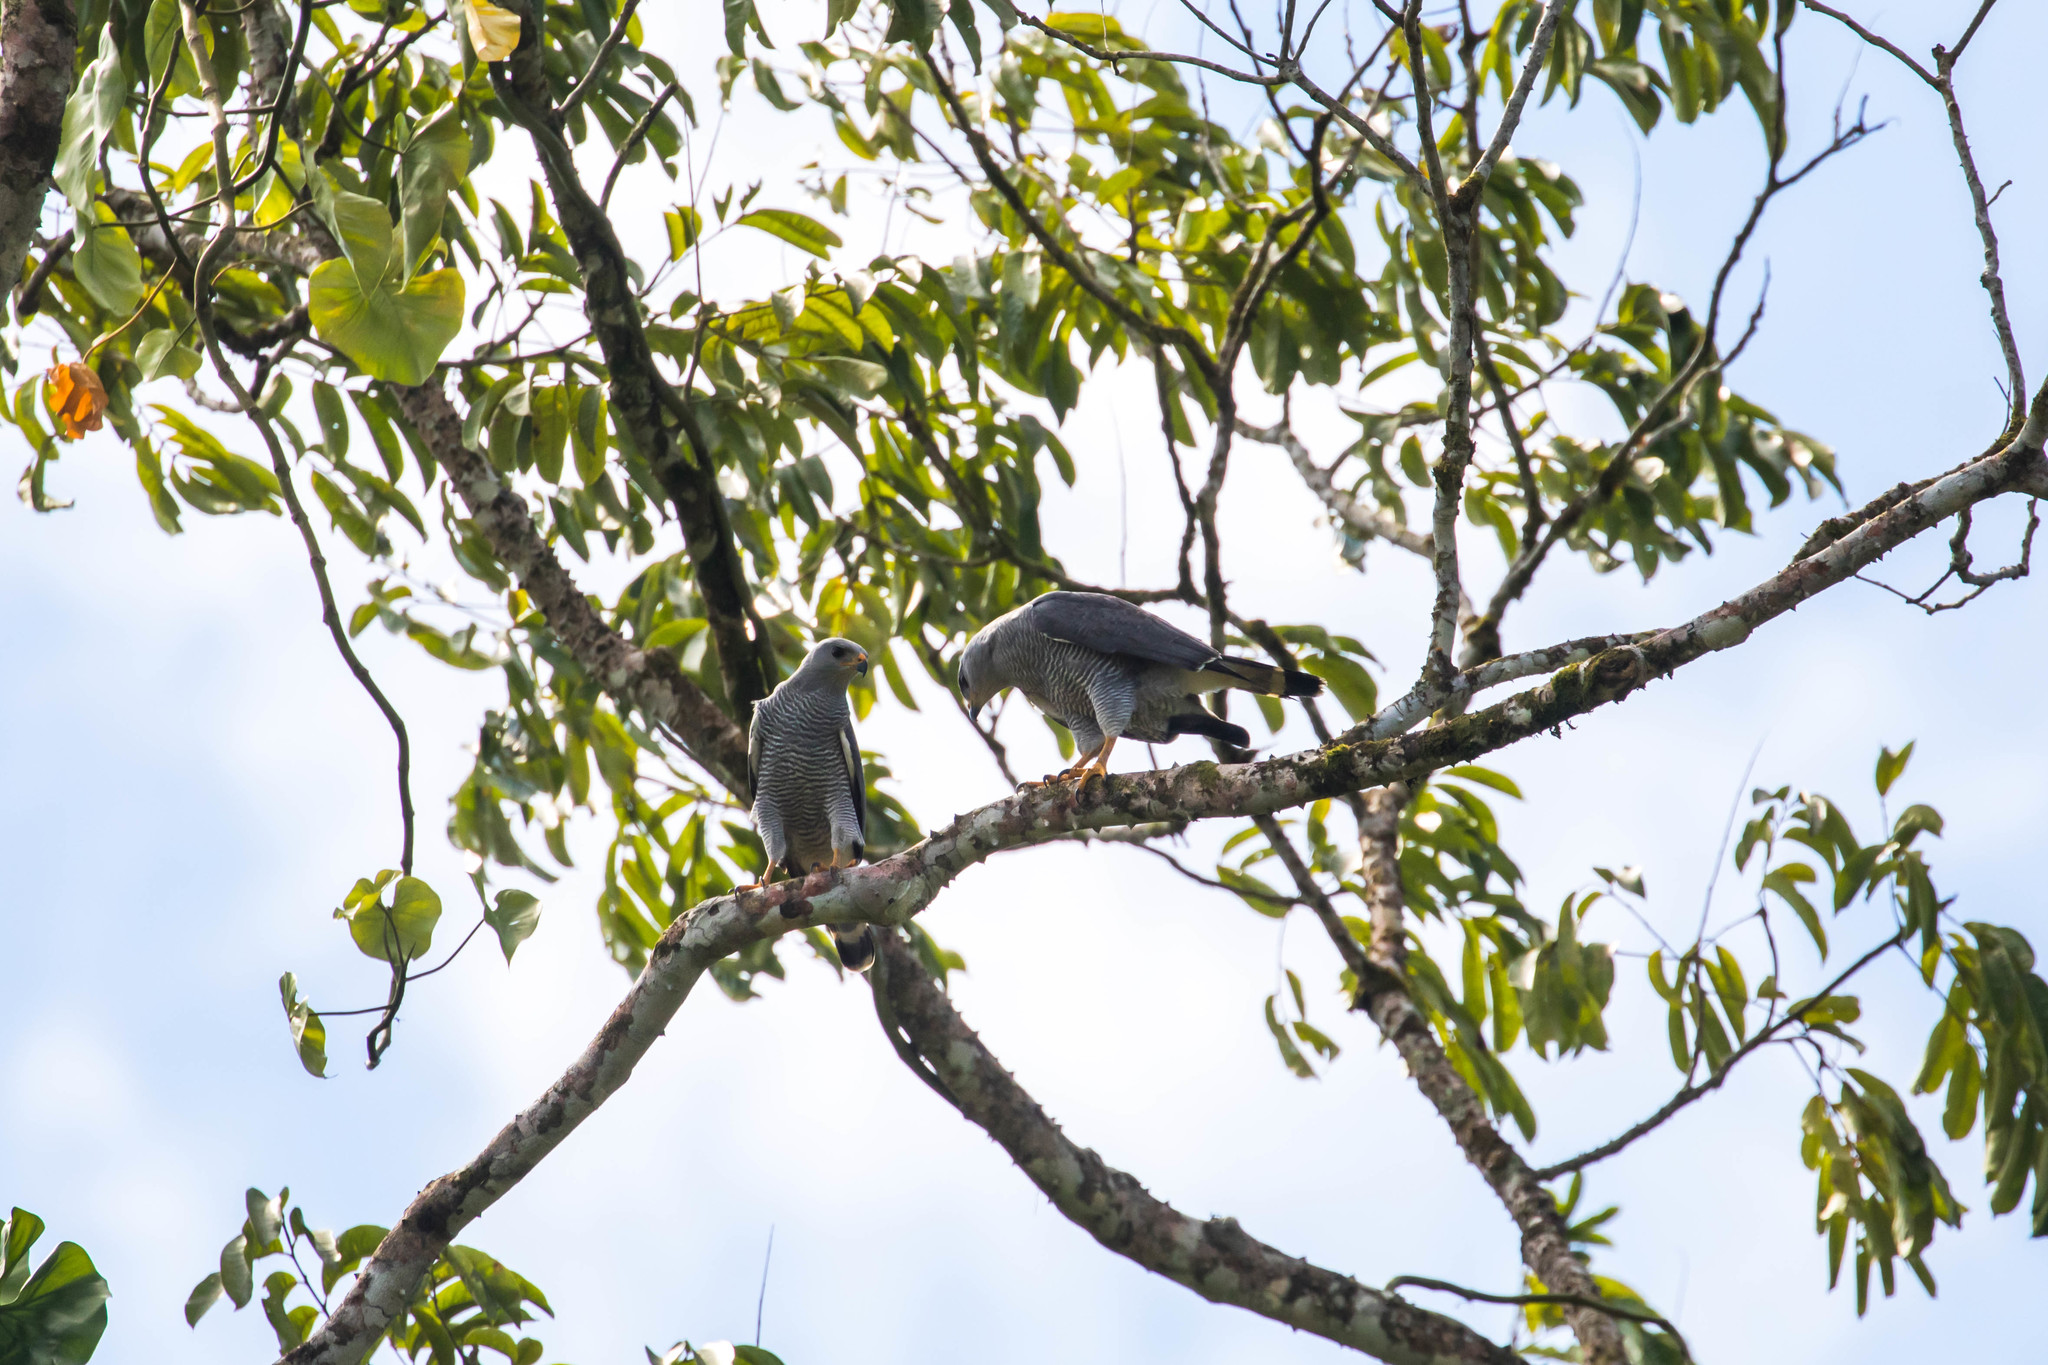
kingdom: Animalia
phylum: Chordata
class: Aves
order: Accipitriformes
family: Accipitridae
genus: Buteo
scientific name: Buteo nitidus
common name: Grey-lined hawk
